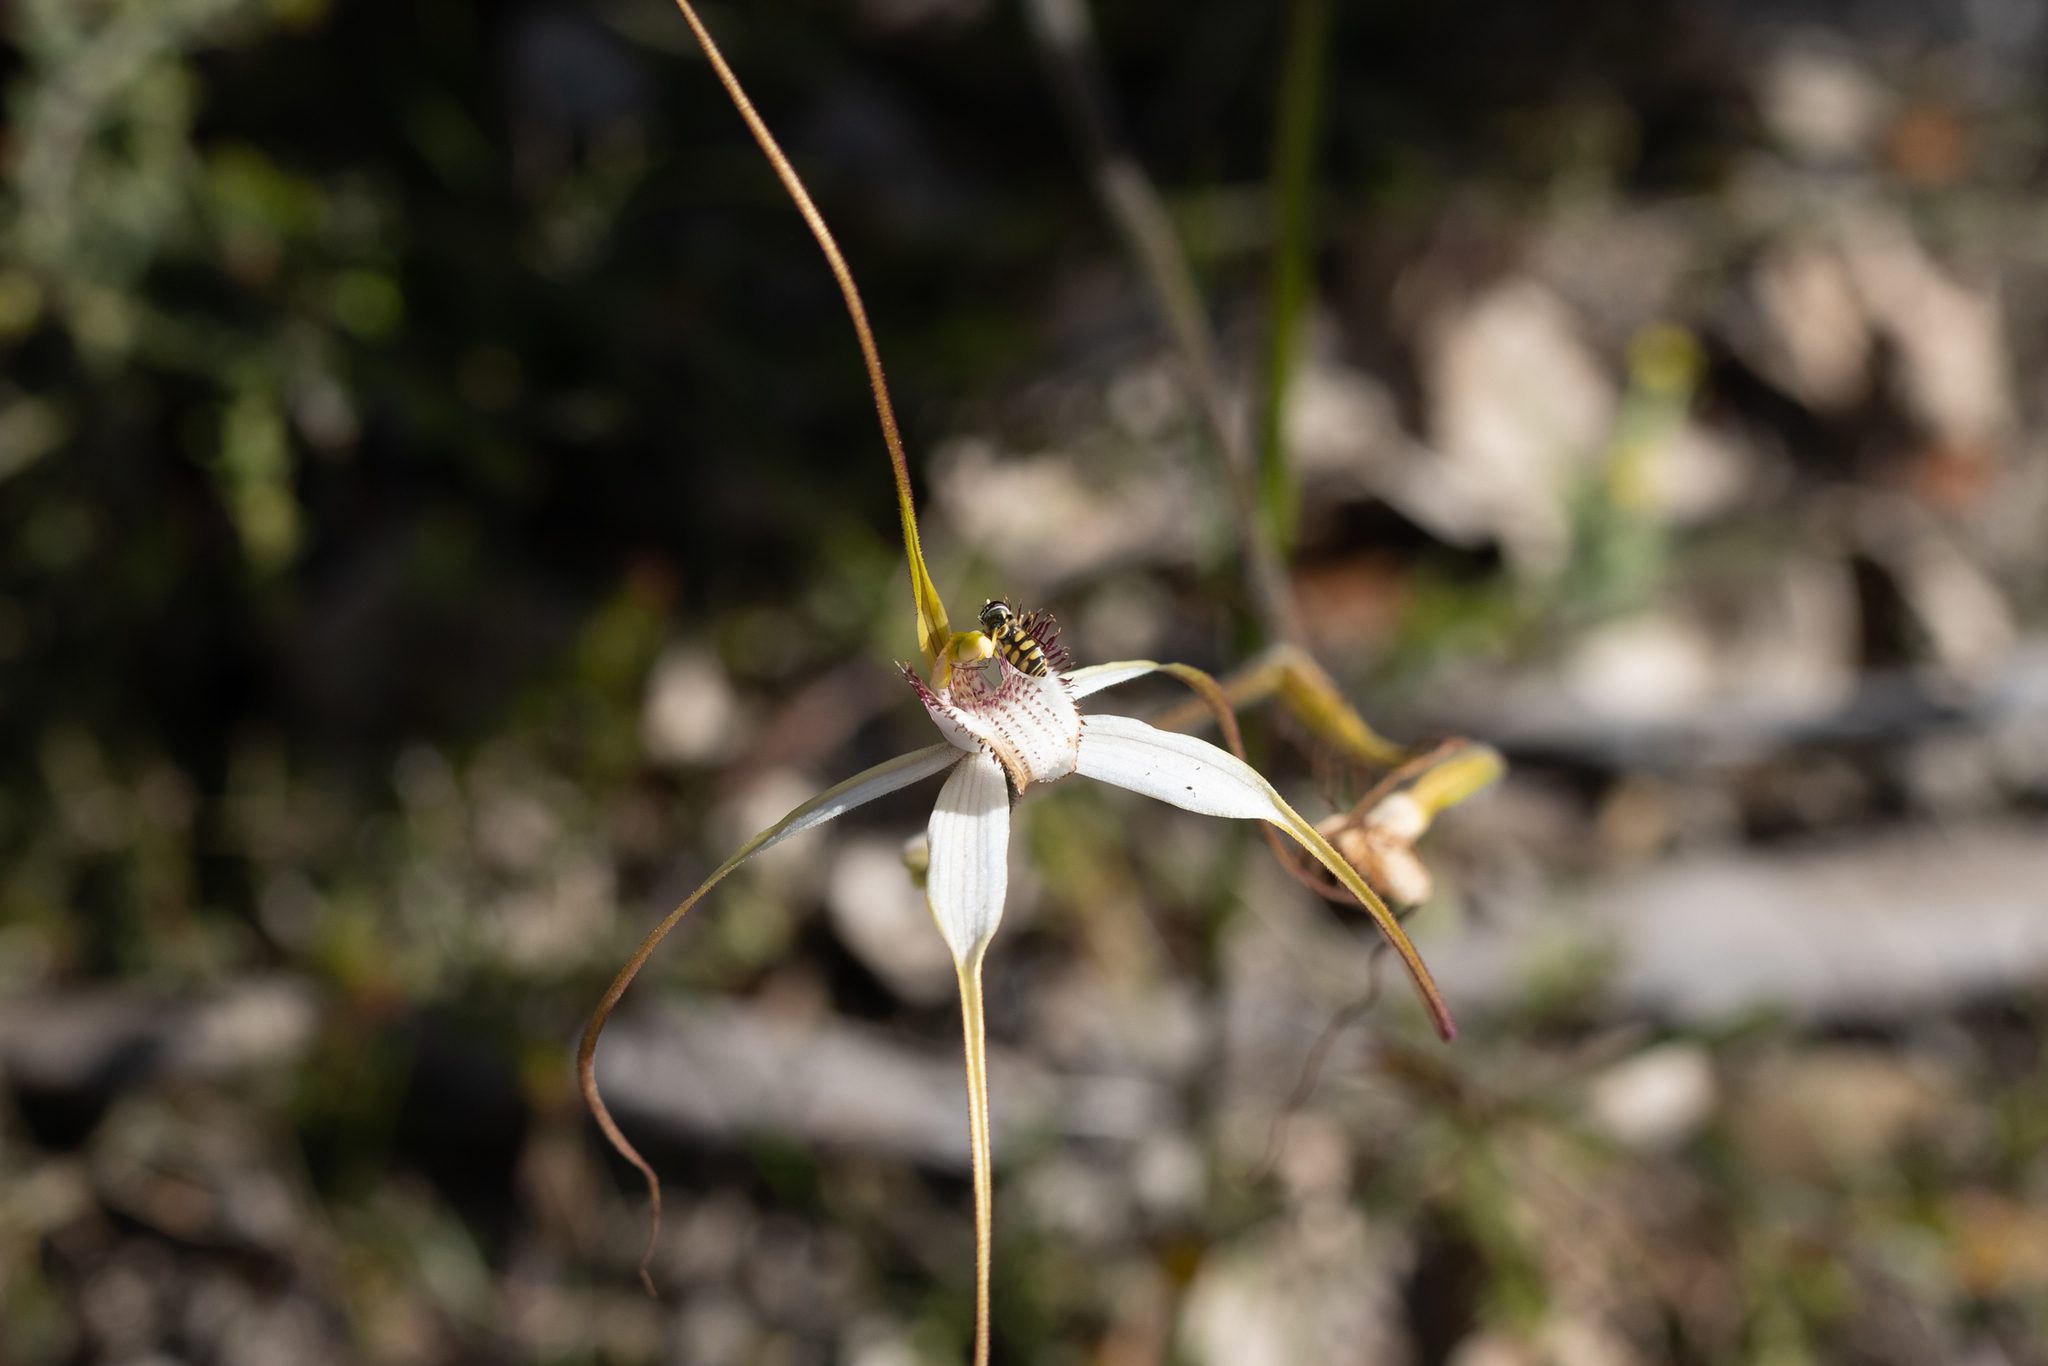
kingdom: Plantae
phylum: Tracheophyta
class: Liliopsida
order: Asparagales
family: Orchidaceae
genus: Caladenia
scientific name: Caladenia longicauda
